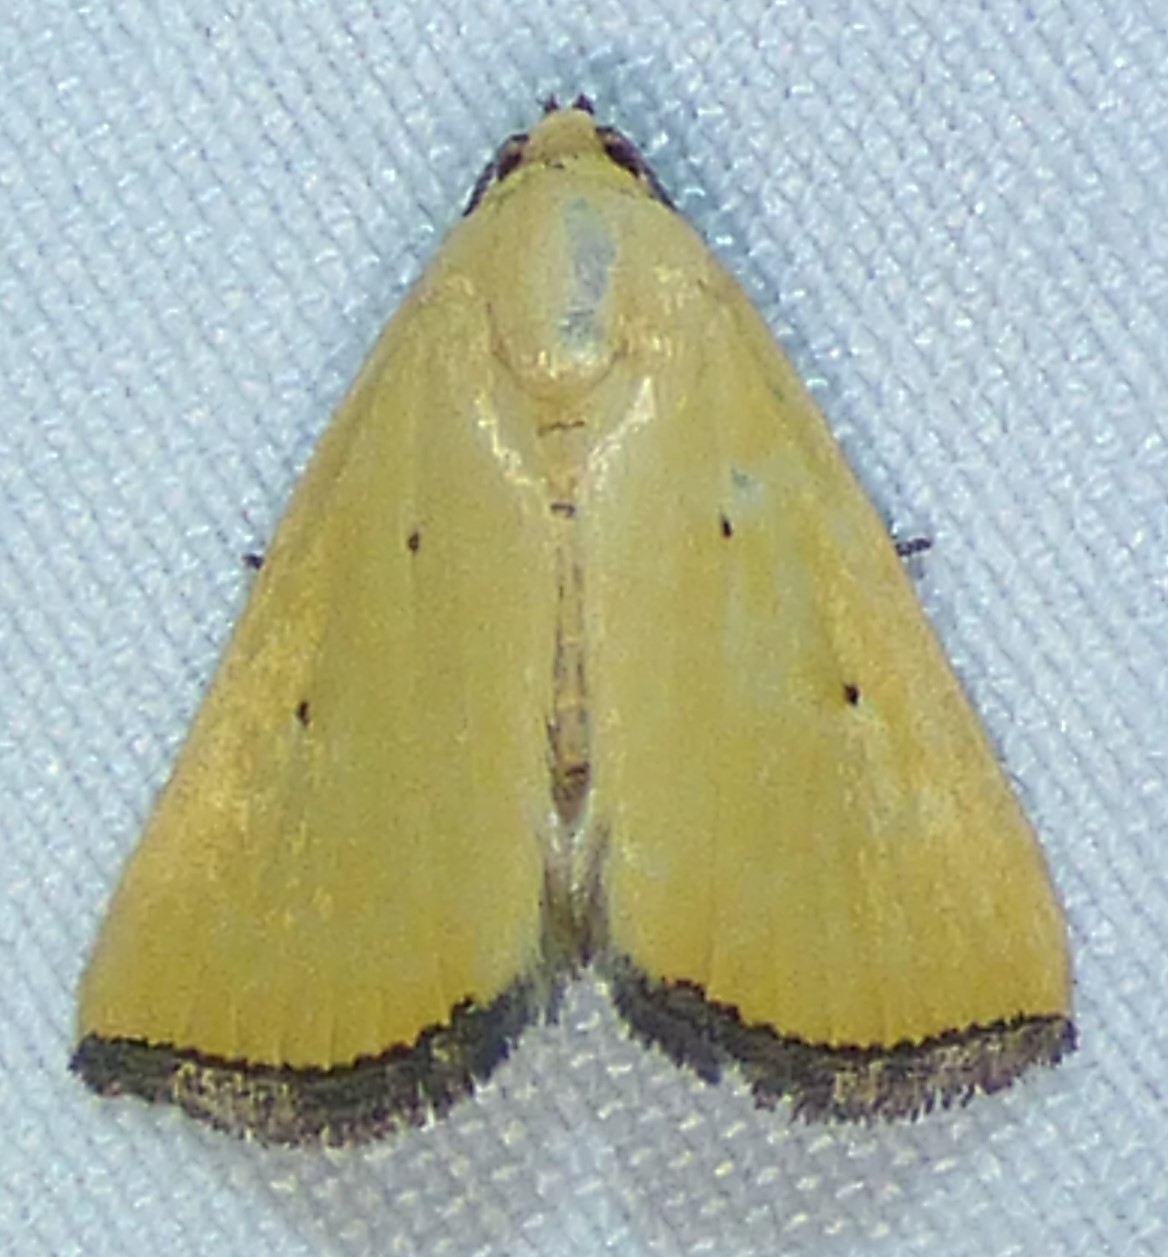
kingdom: Animalia
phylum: Arthropoda
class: Insecta
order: Lepidoptera
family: Noctuidae
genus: Marimatha
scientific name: Marimatha nigrofimbria
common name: Black-bordered lemon moth
